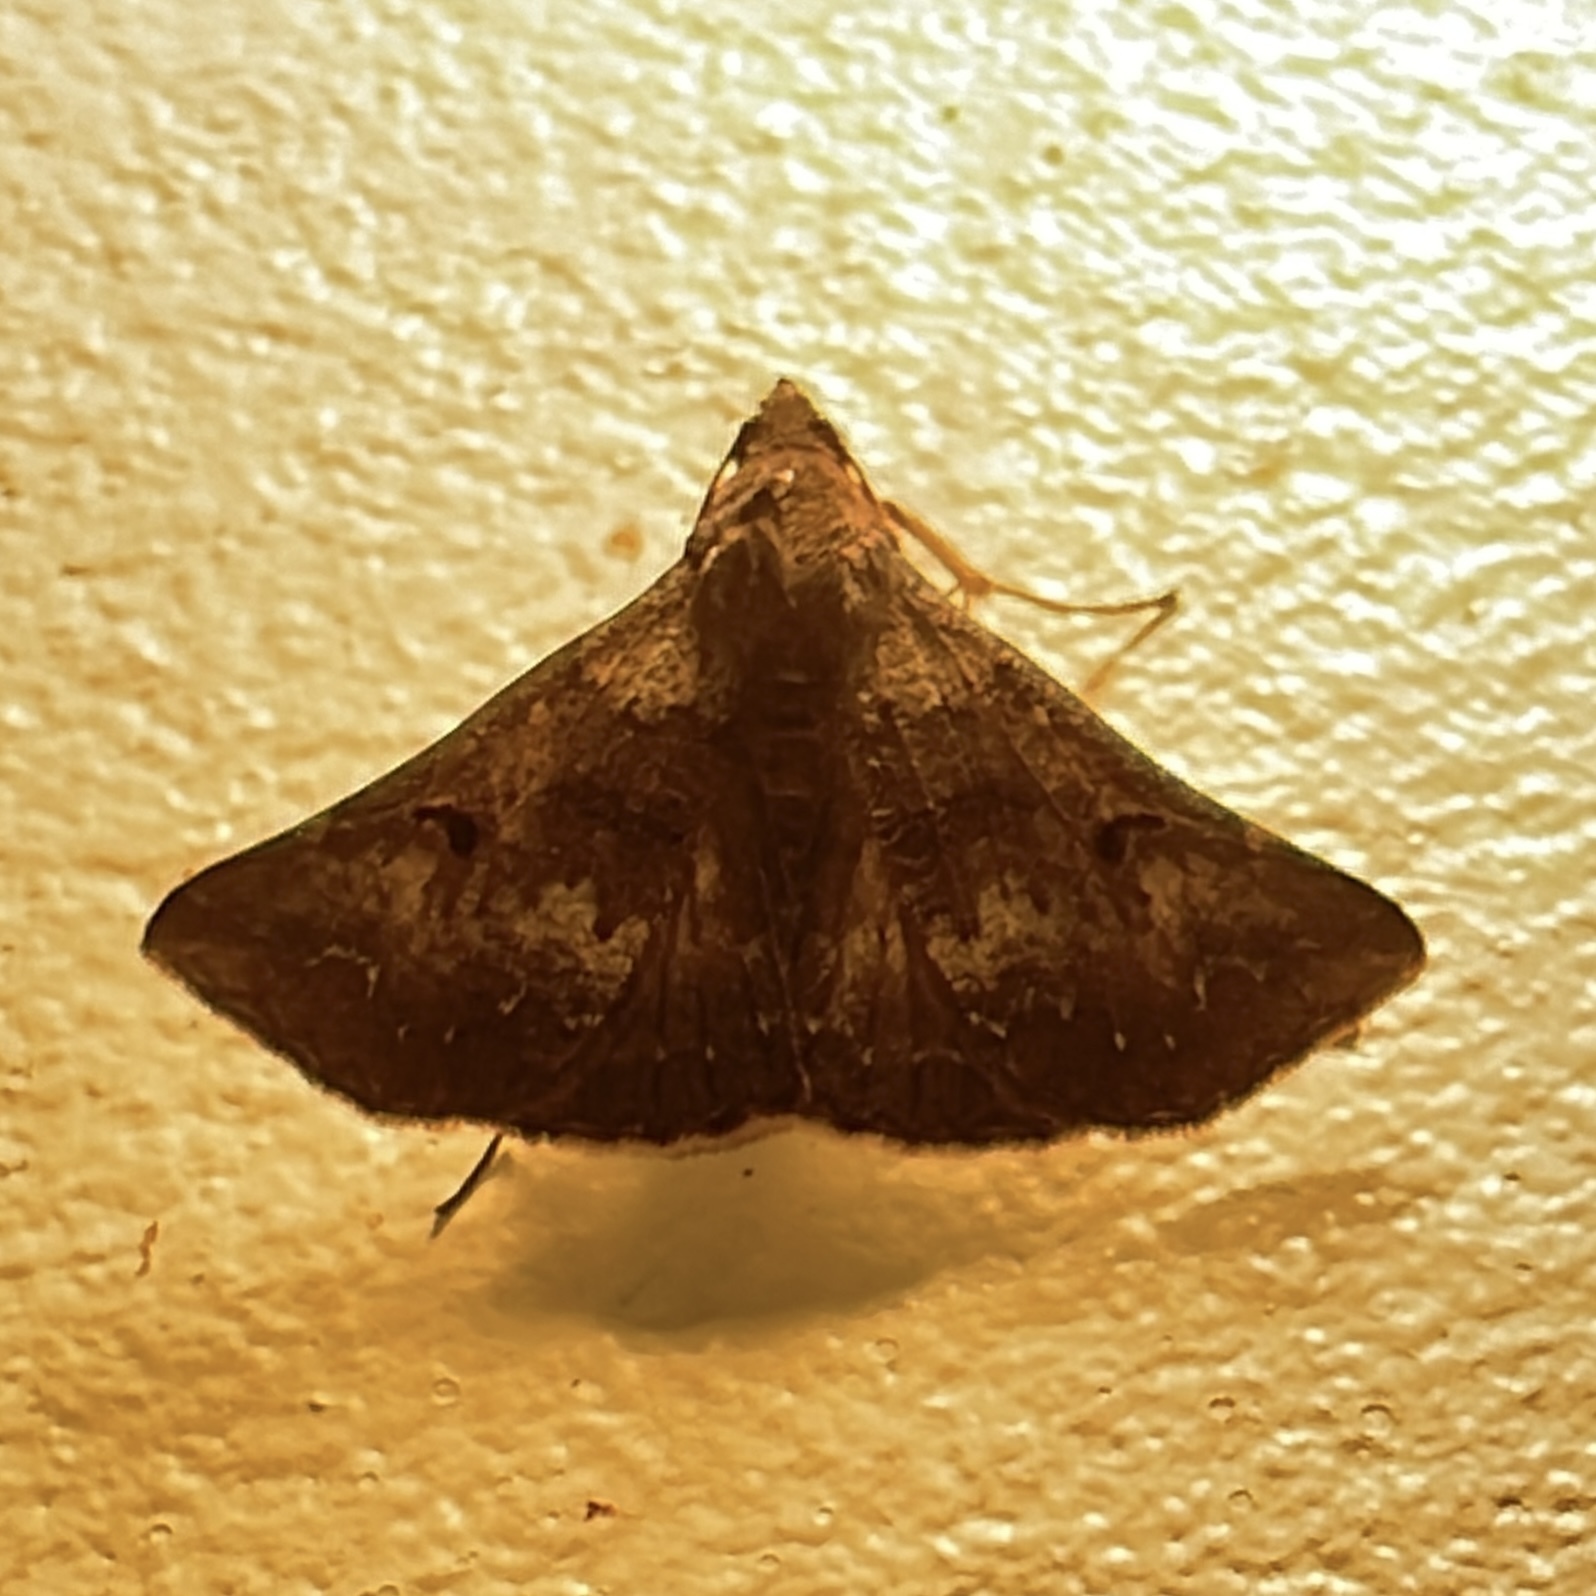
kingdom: Animalia
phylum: Arthropoda
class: Insecta
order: Lepidoptera
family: Erebidae
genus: Renia
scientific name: Renia acclamalis
